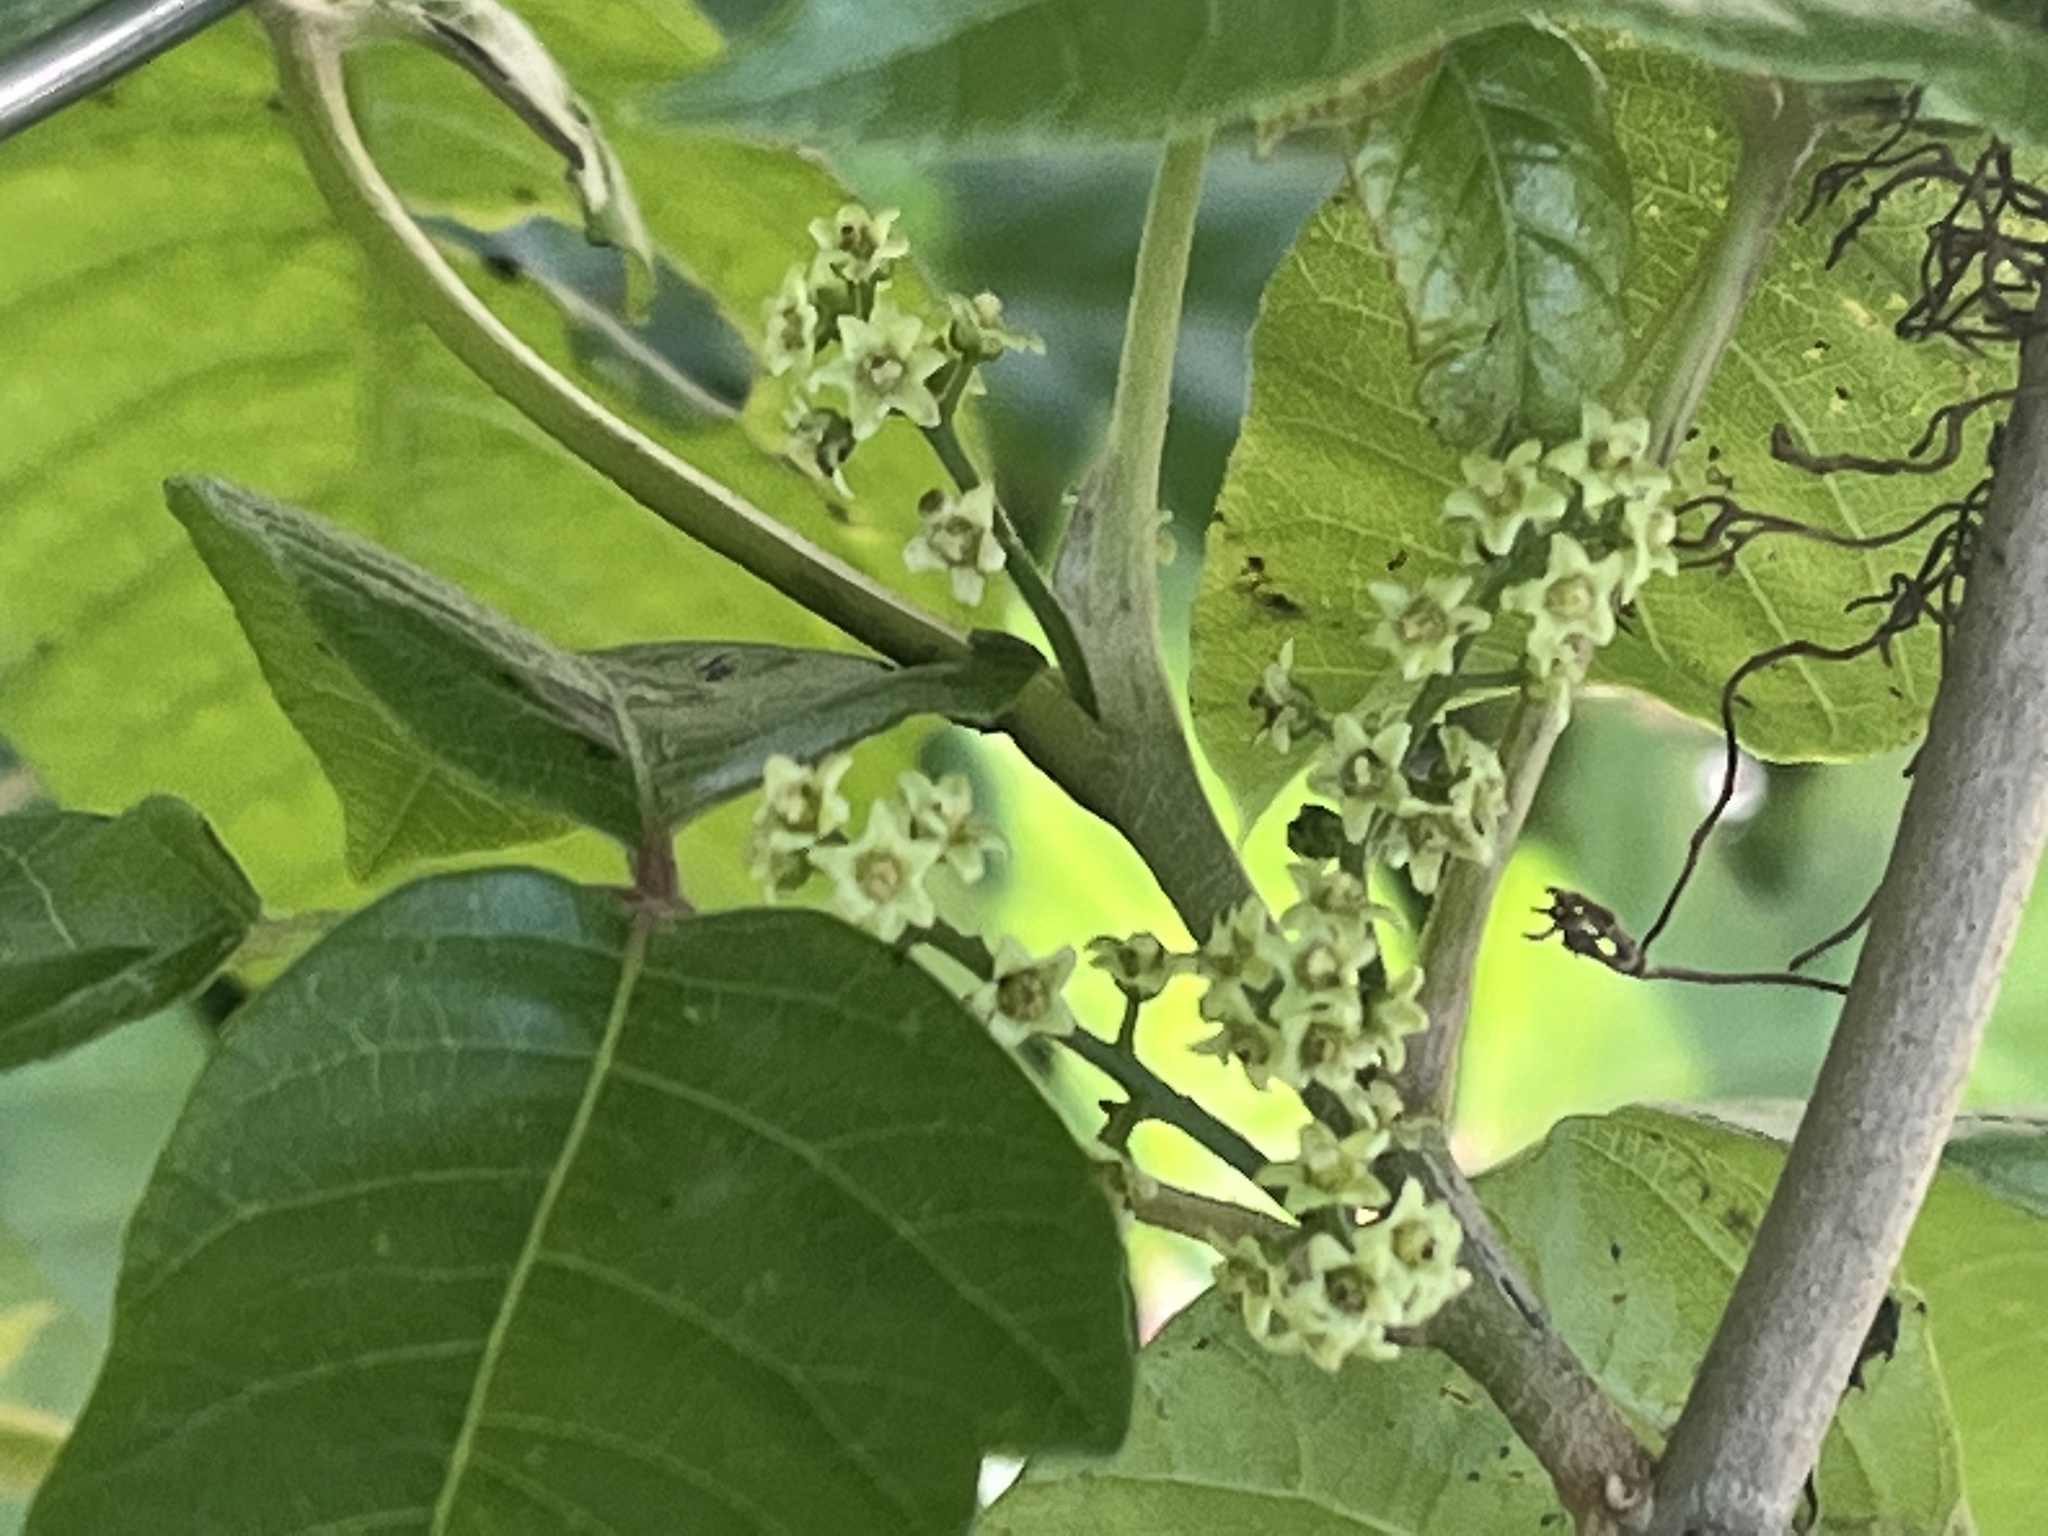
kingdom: Plantae
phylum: Tracheophyta
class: Magnoliopsida
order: Sapindales
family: Anacardiaceae
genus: Toxicodendron
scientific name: Toxicodendron radicans
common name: Poison ivy
